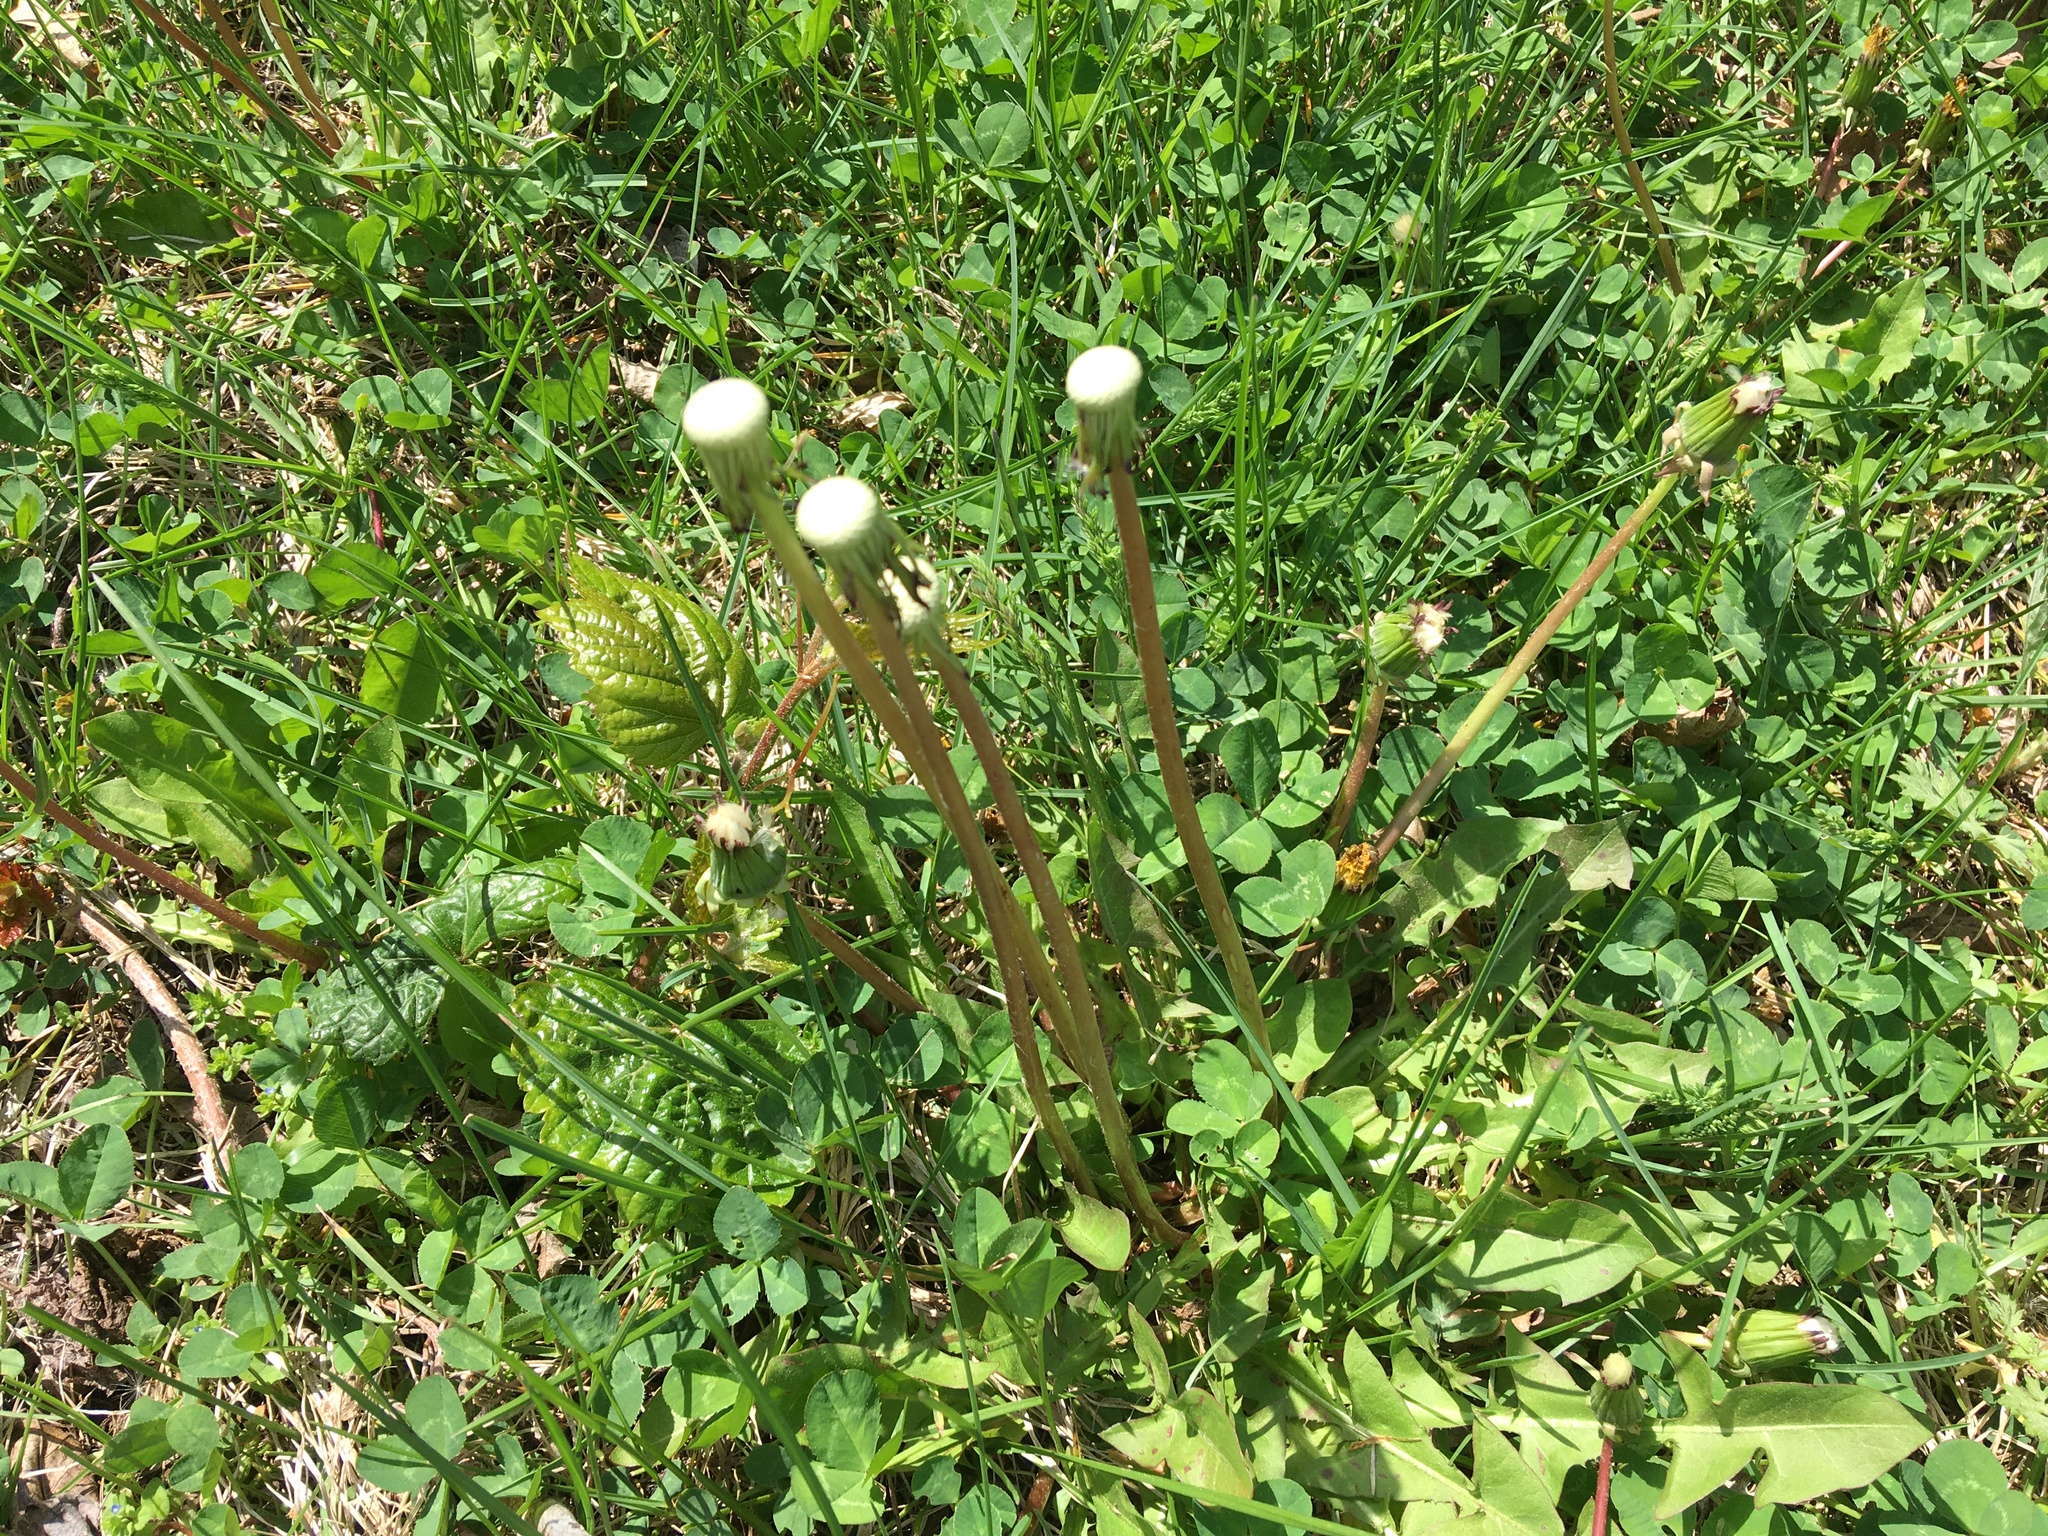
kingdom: Plantae
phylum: Tracheophyta
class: Magnoliopsida
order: Asterales
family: Asteraceae
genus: Taraxacum
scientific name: Taraxacum officinale
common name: Common dandelion
